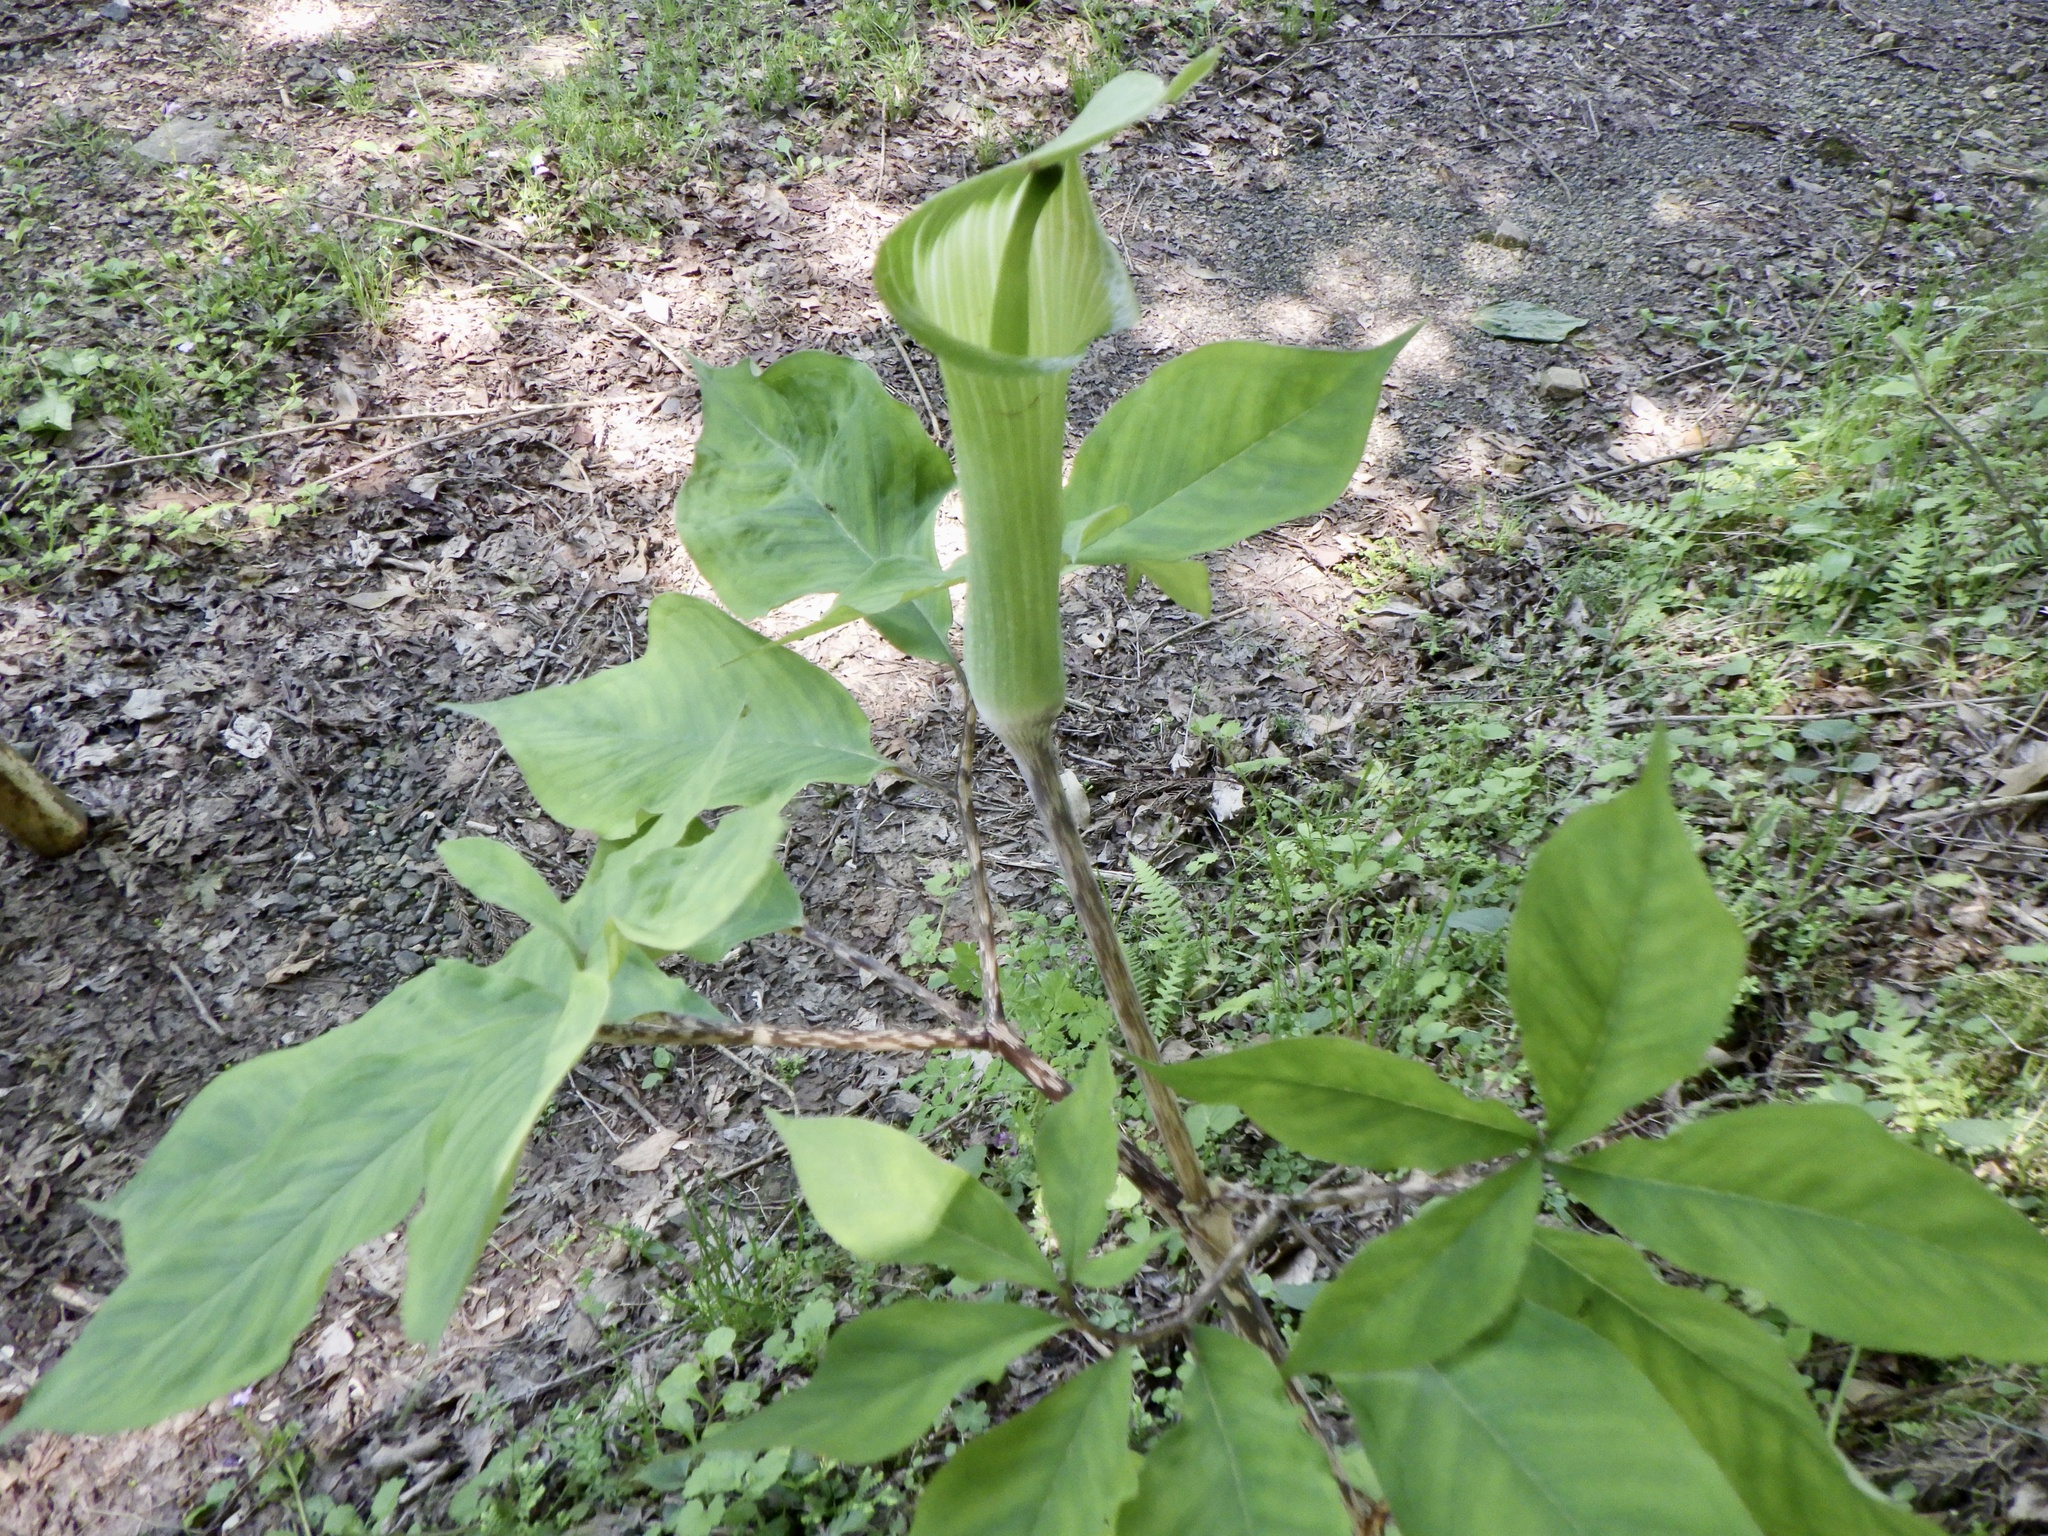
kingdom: Plantae
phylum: Tracheophyta
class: Liliopsida
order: Alismatales
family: Araceae
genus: Arisaema
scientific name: Arisaema yamatense
